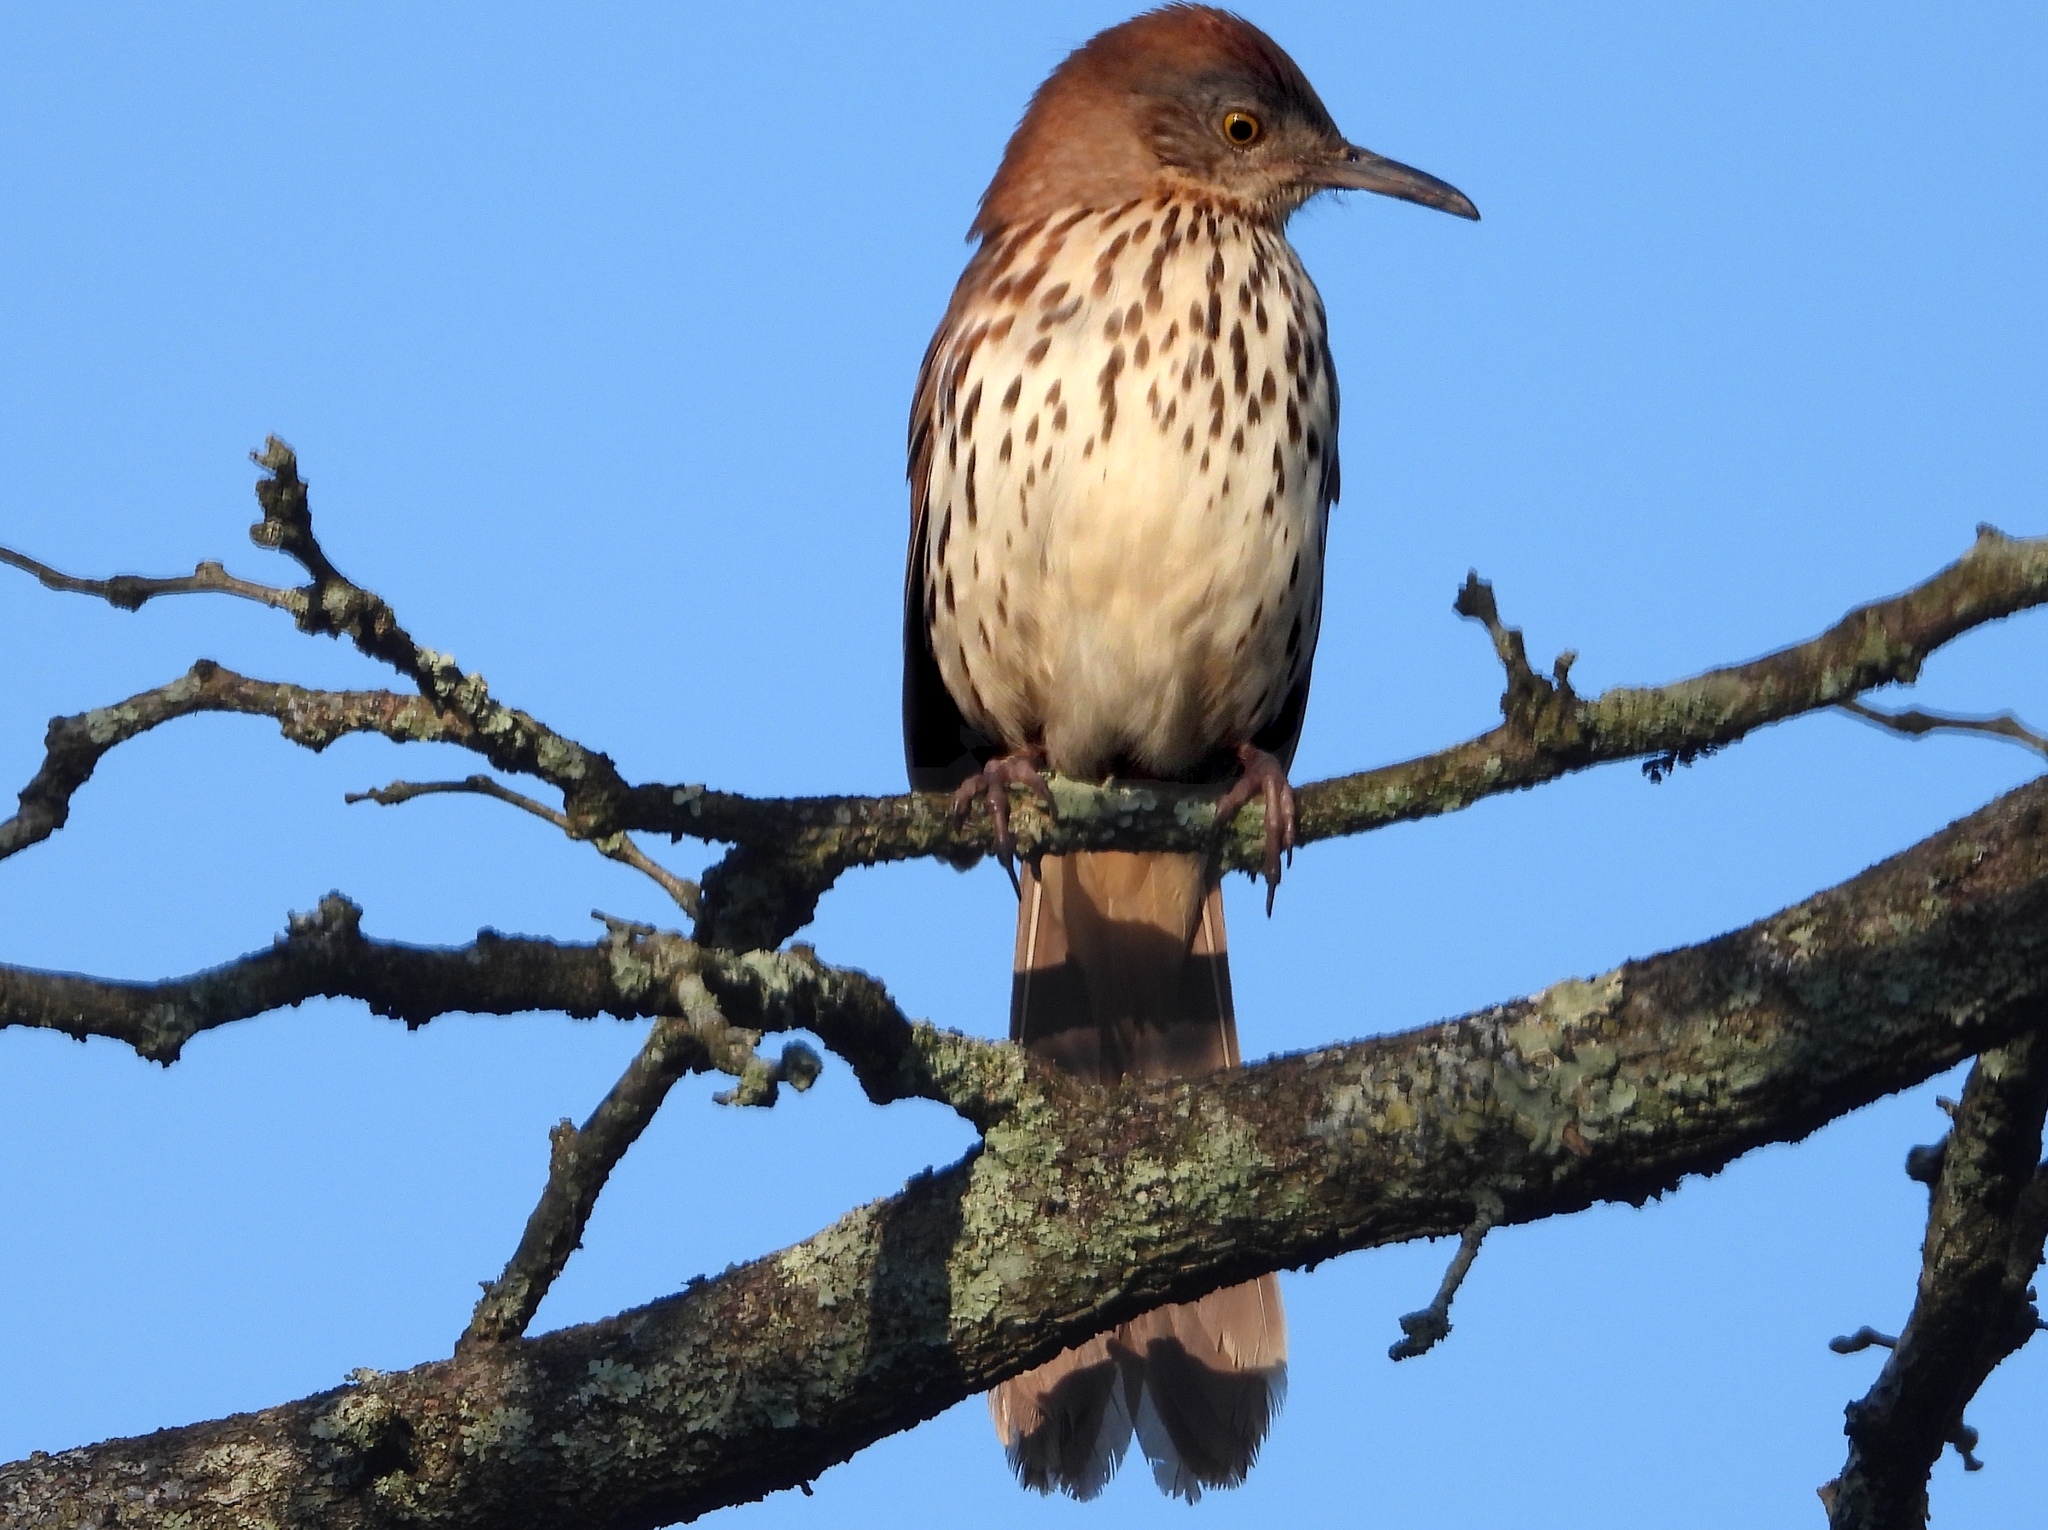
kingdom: Animalia
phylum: Chordata
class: Aves
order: Passeriformes
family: Mimidae
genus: Toxostoma
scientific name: Toxostoma rufum
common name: Brown thrasher
